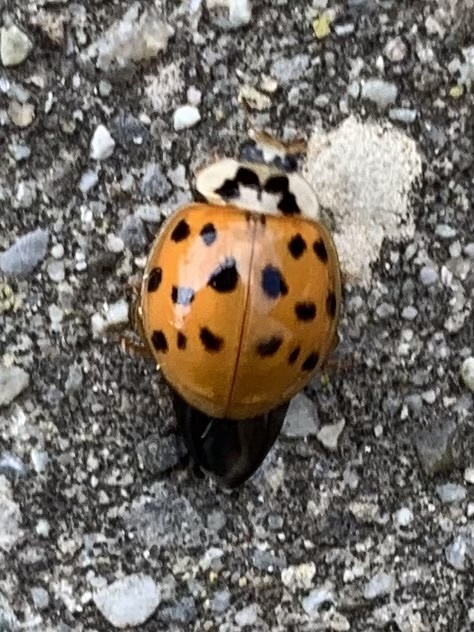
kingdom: Animalia
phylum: Arthropoda
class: Insecta
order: Coleoptera
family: Coccinellidae
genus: Harmonia
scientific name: Harmonia axyridis
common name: Harlequin ladybird
